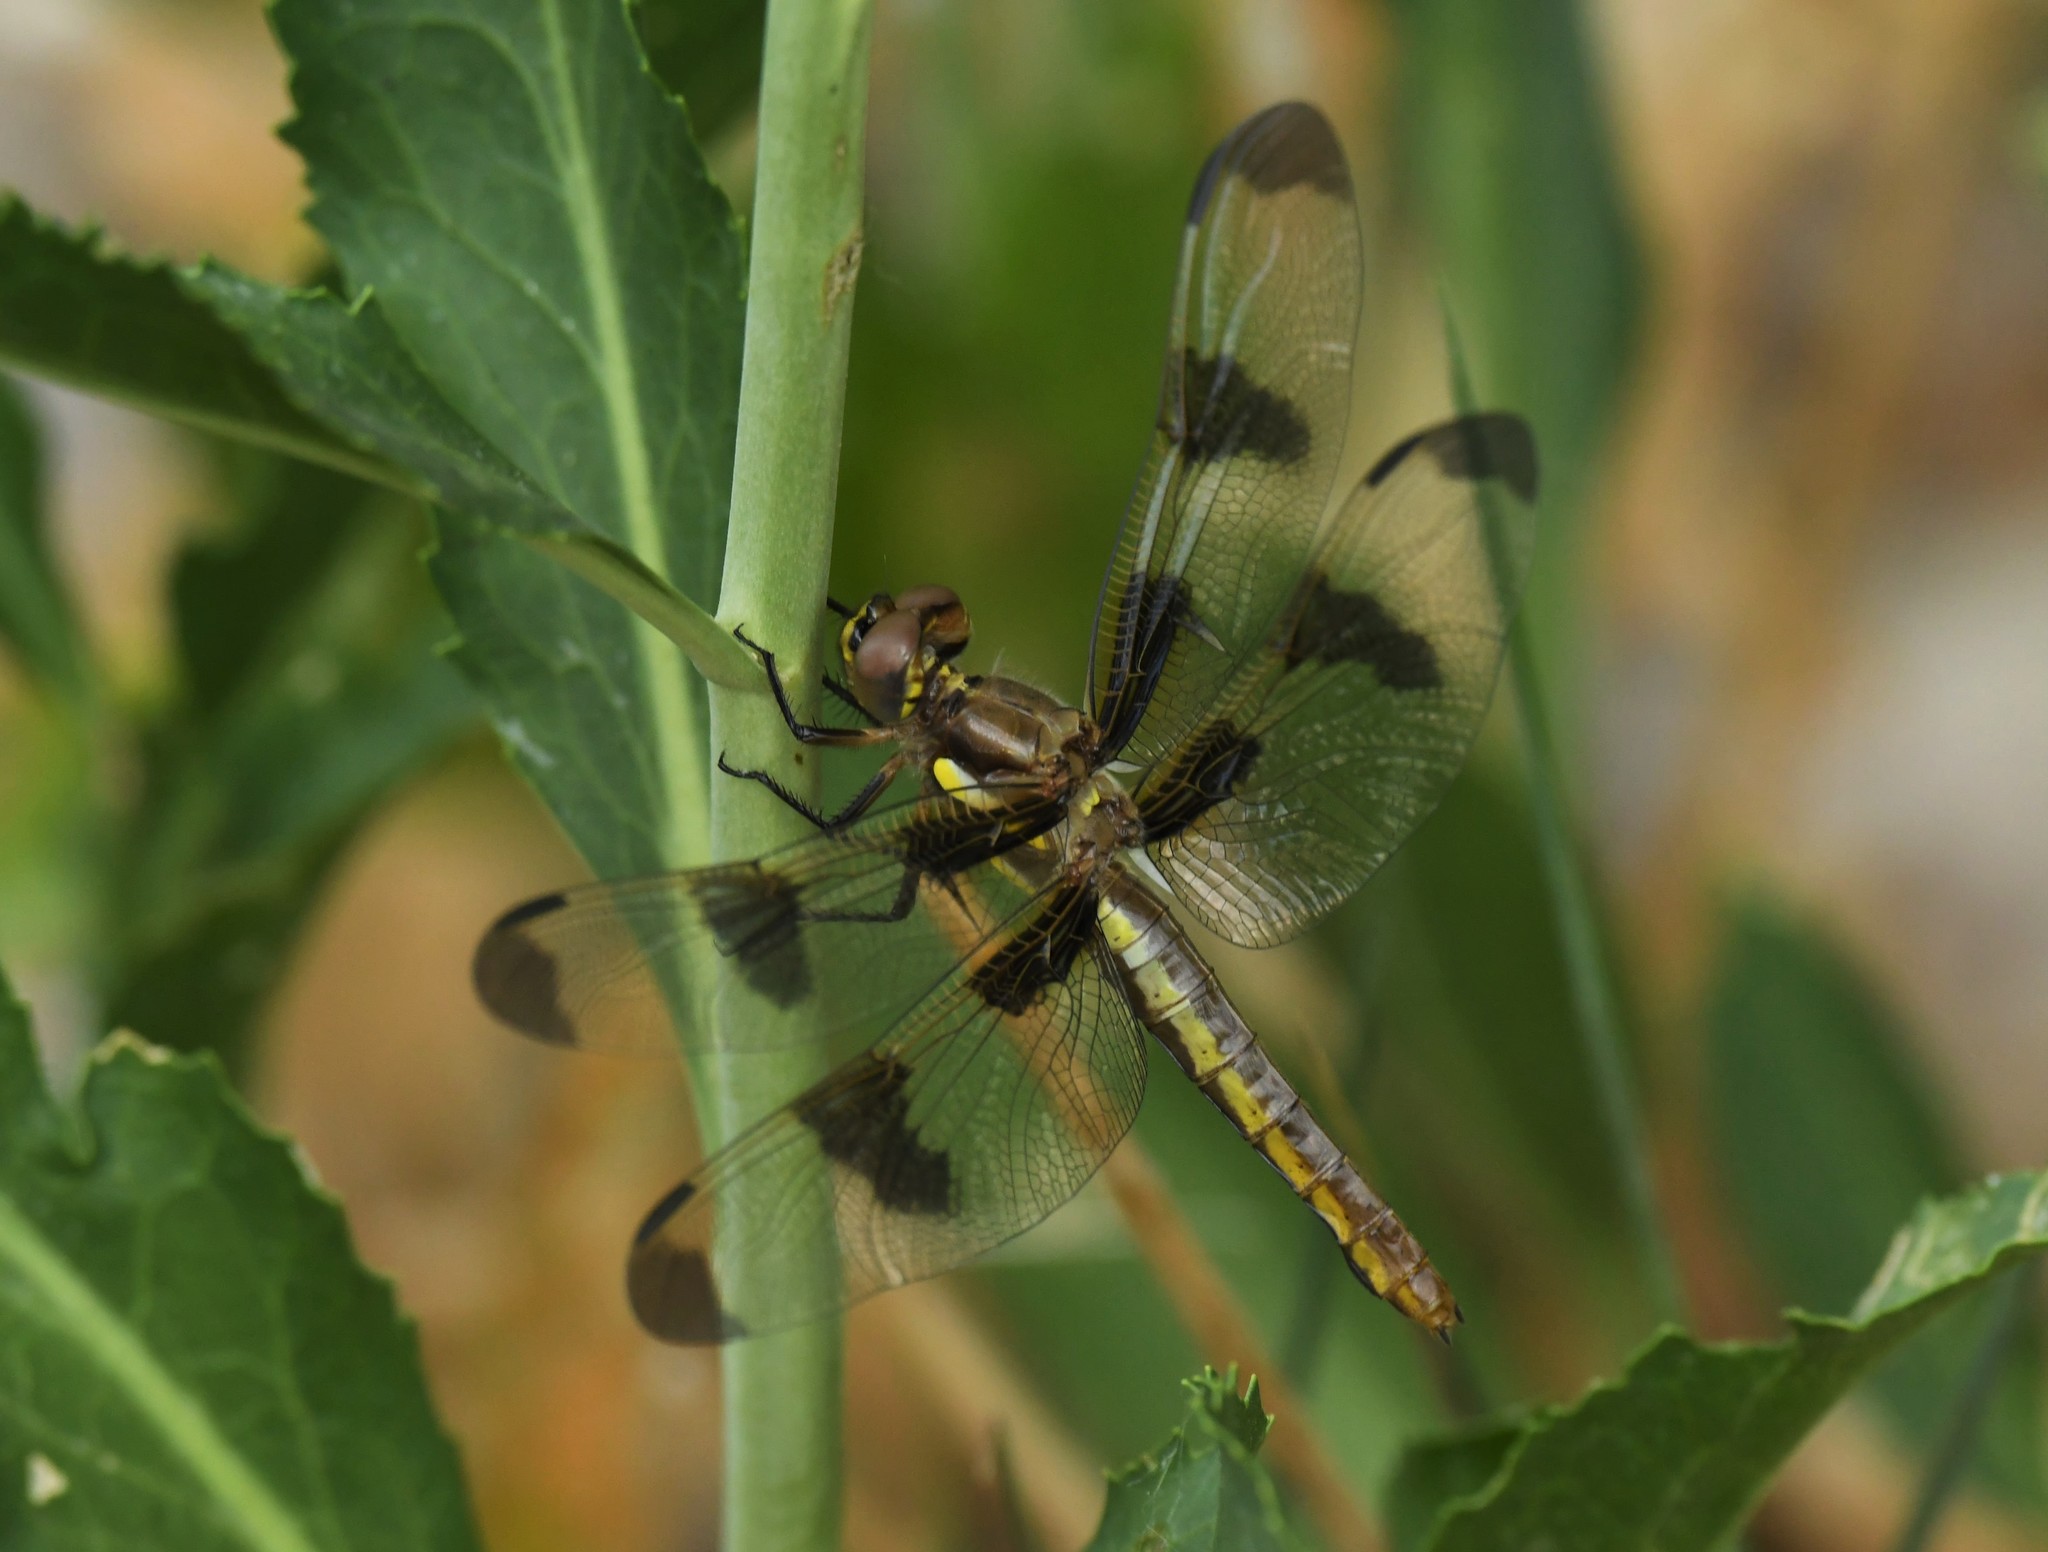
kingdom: Animalia
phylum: Arthropoda
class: Insecta
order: Odonata
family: Libellulidae
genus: Libellula
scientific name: Libellula pulchella
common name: Twelve-spotted skimmer
